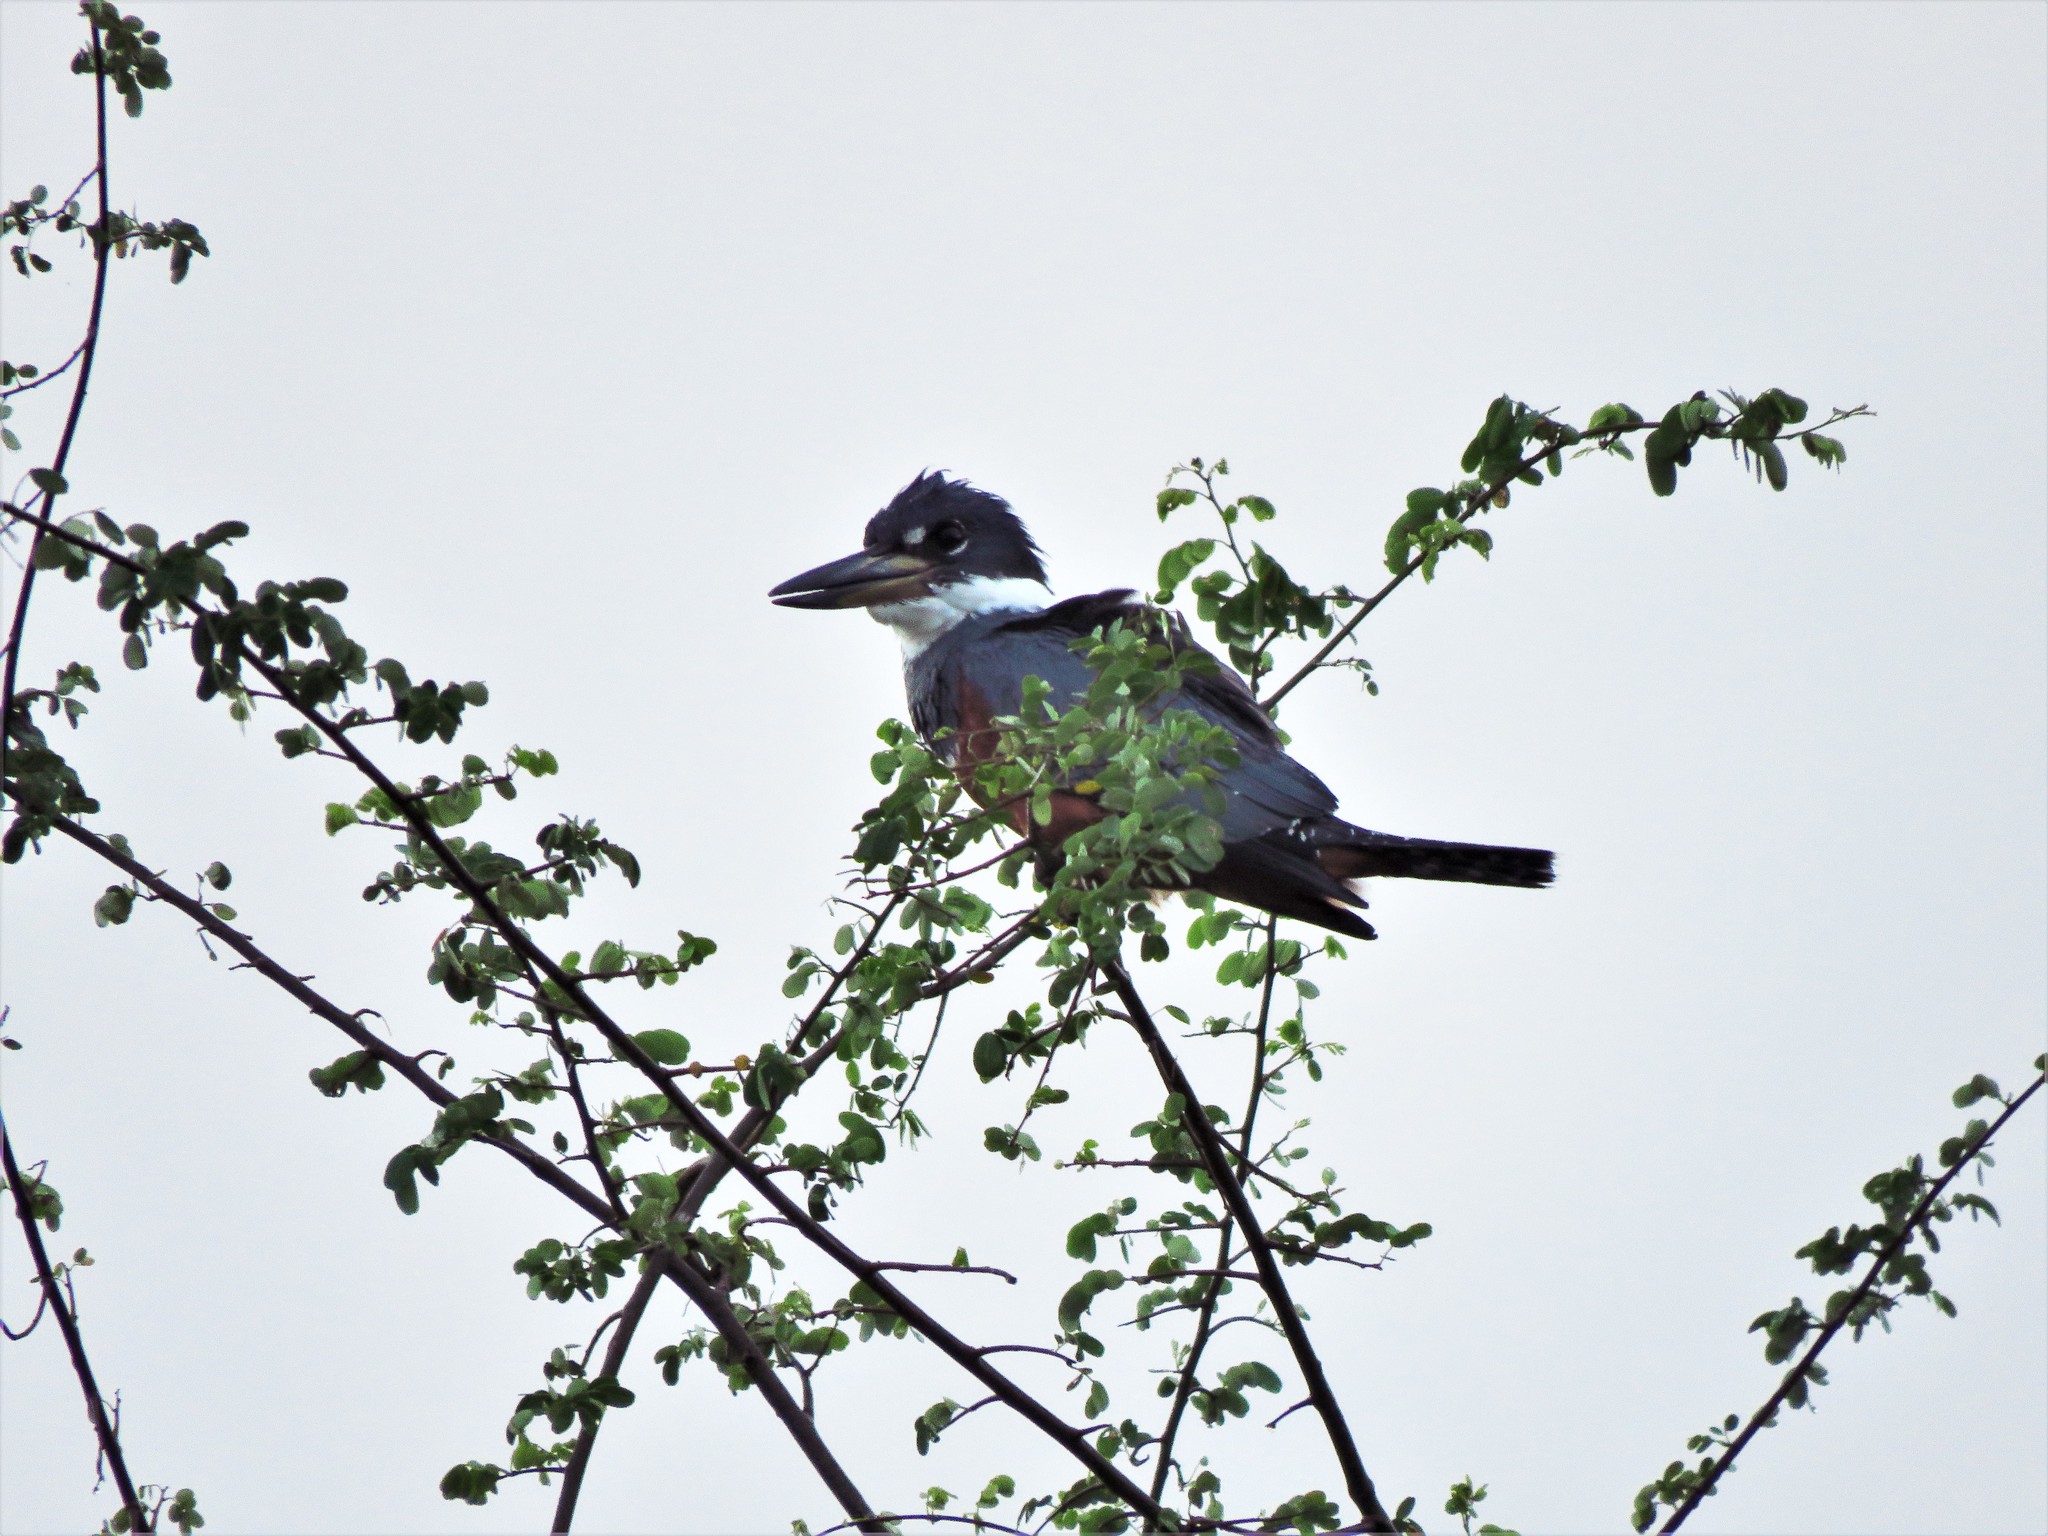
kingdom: Animalia
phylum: Chordata
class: Aves
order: Coraciiformes
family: Alcedinidae
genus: Megaceryle
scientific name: Megaceryle torquata
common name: Ringed kingfisher
